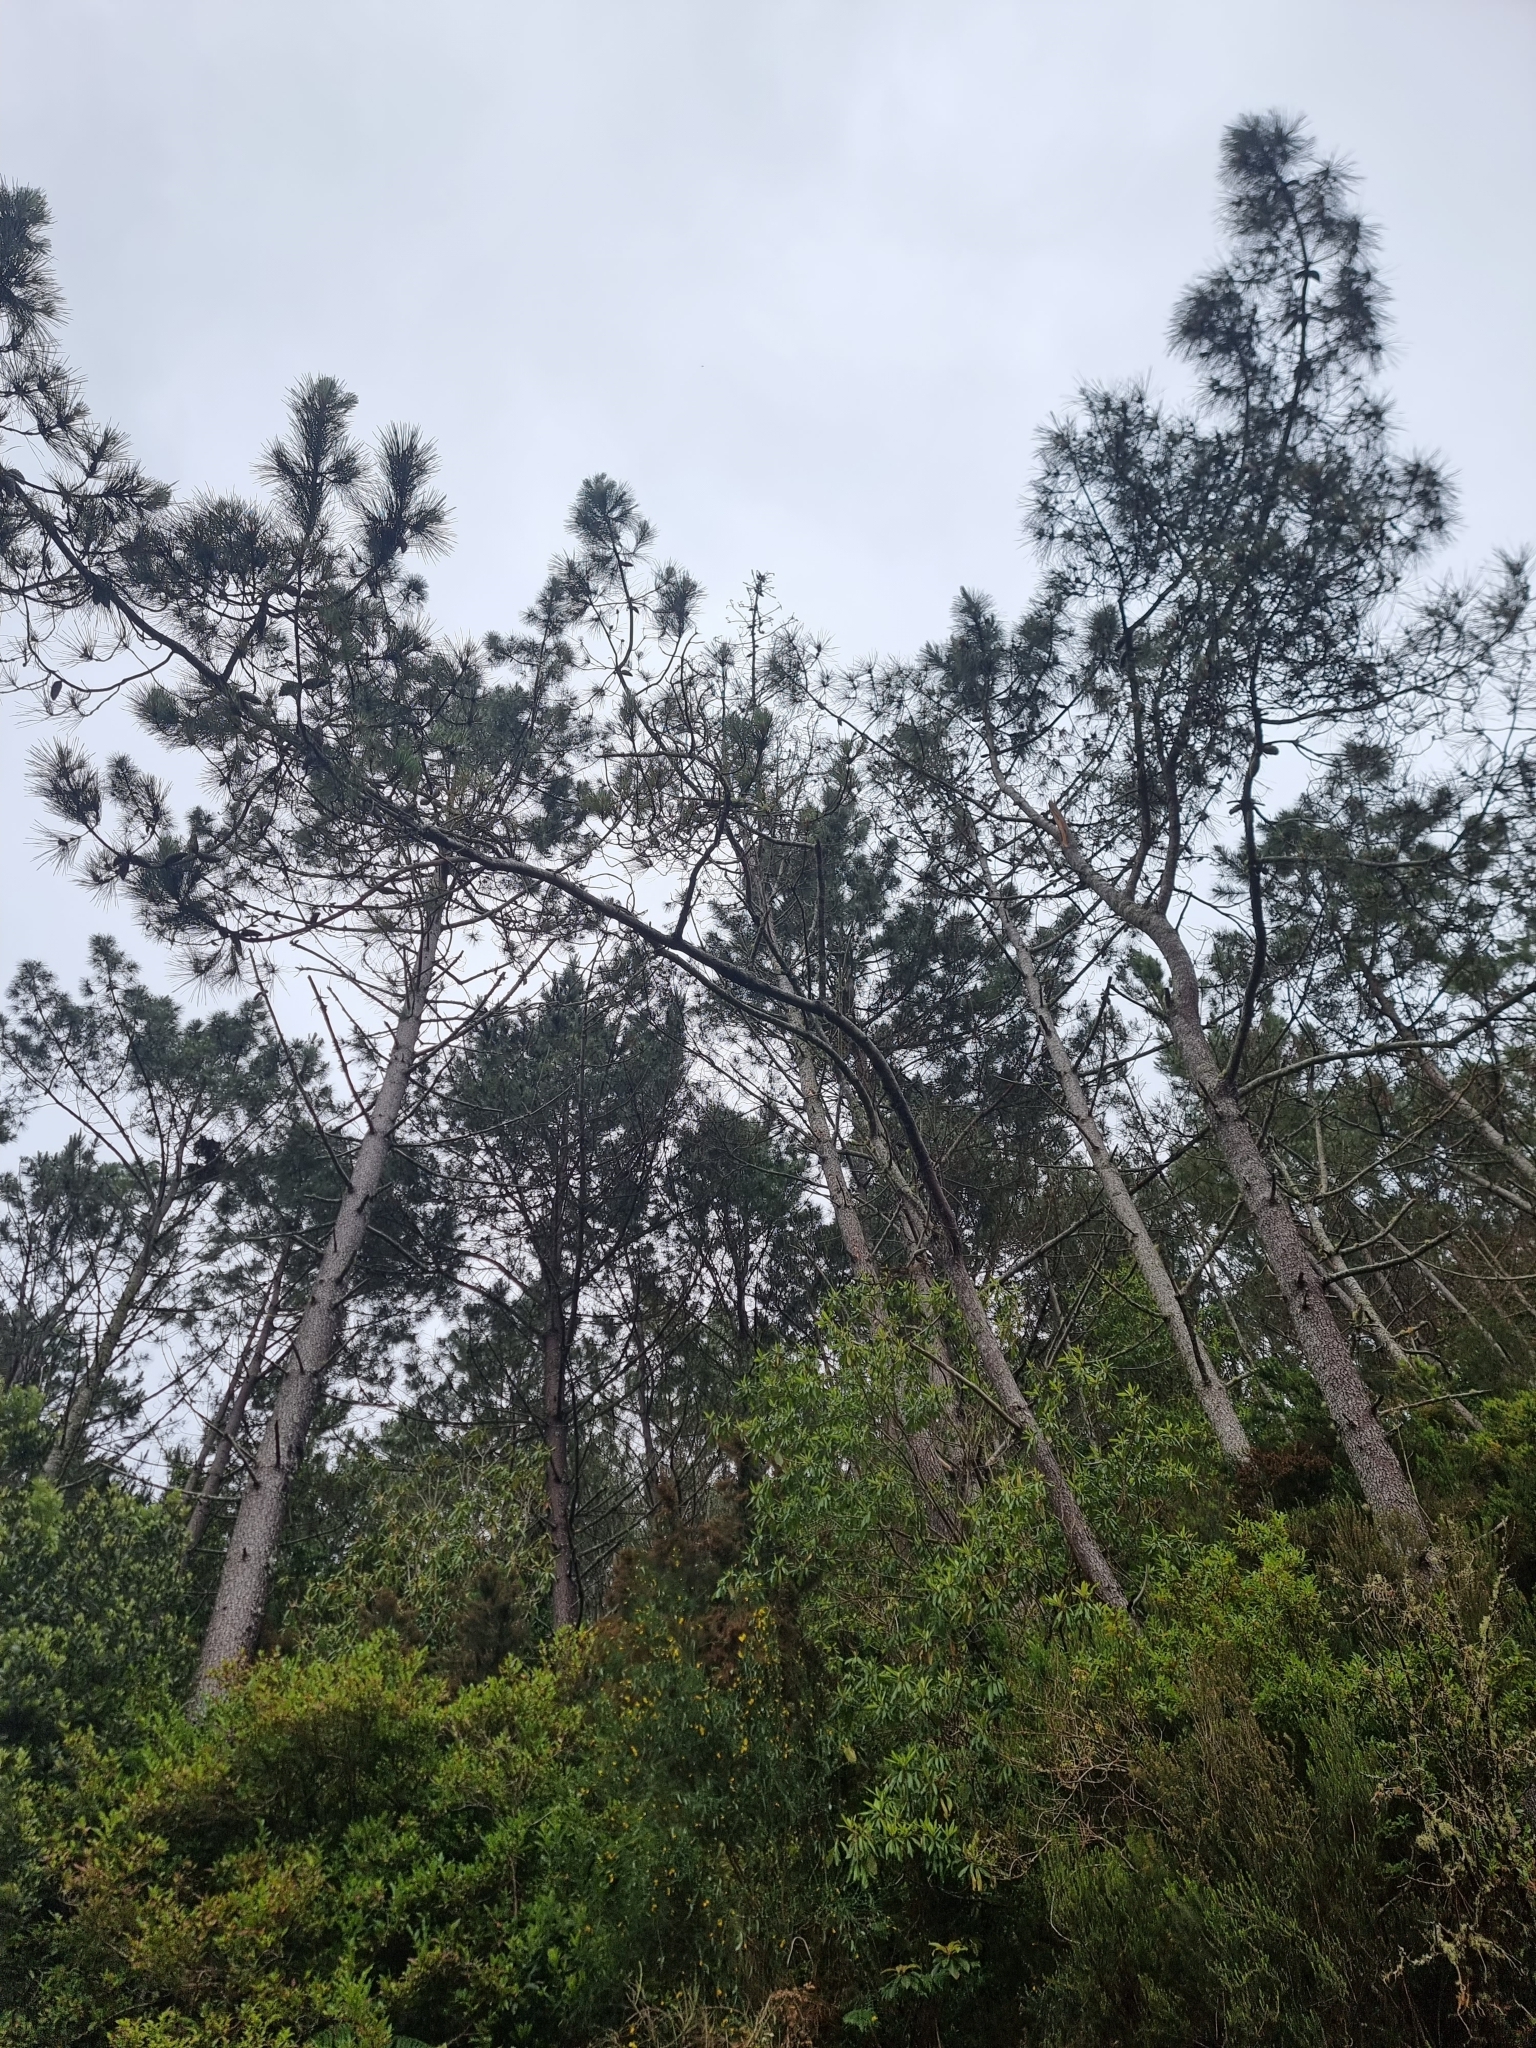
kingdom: Plantae
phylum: Tracheophyta
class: Pinopsida
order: Pinales
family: Pinaceae
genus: Pinus
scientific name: Pinus pinaster
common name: Maritime pine
